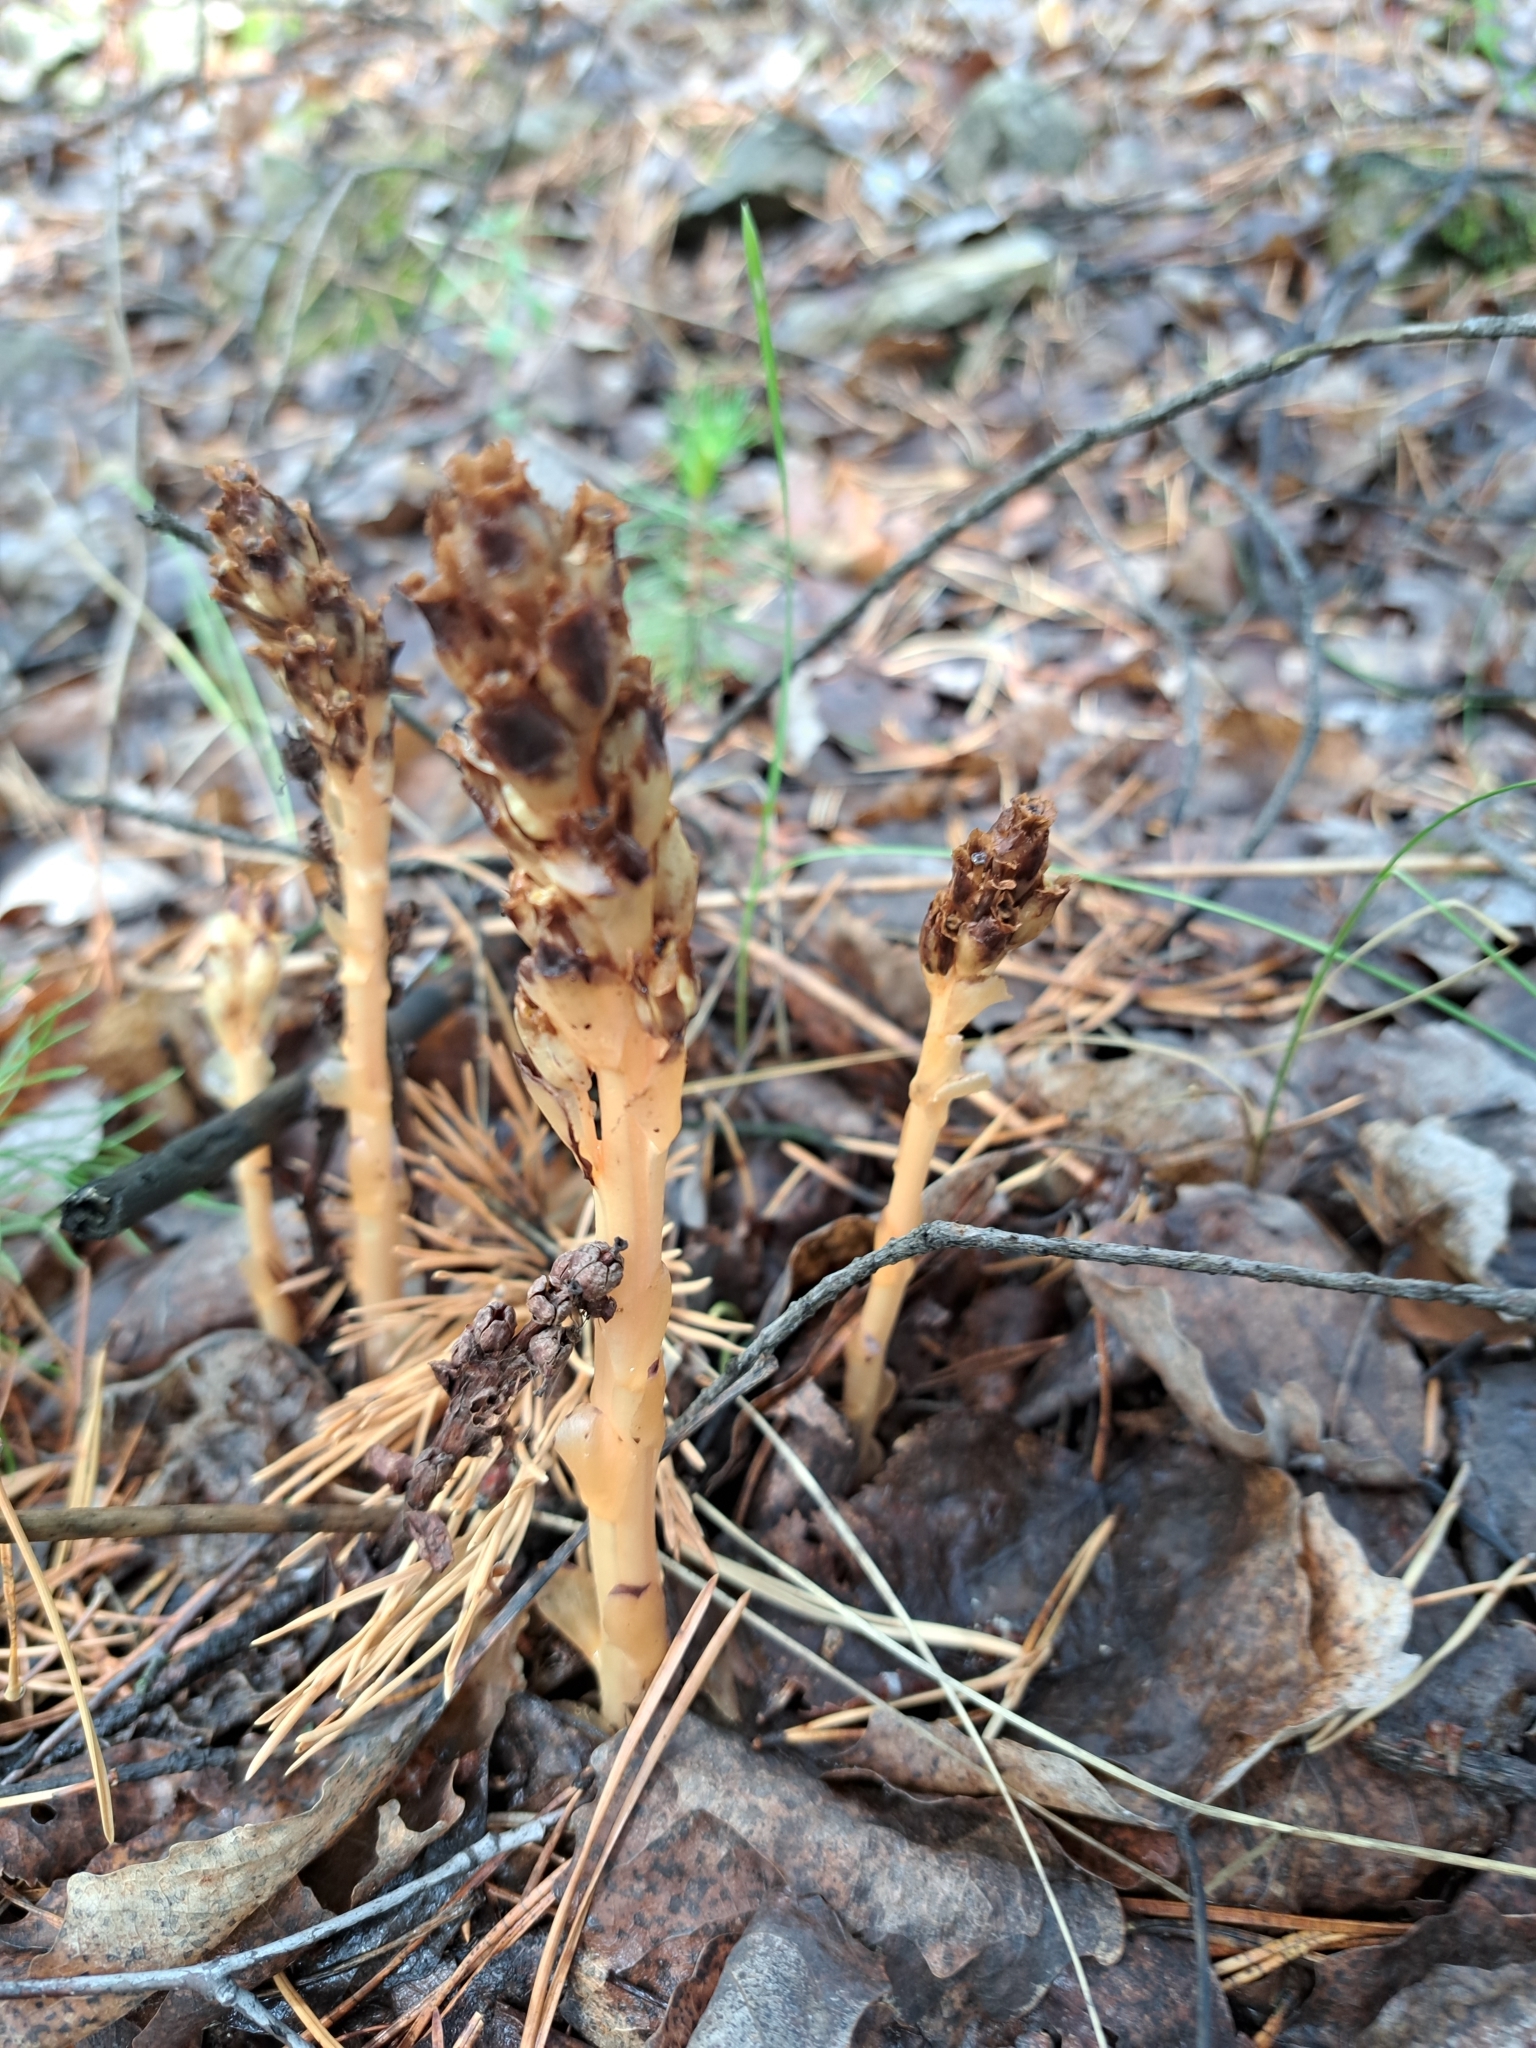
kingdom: Plantae
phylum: Tracheophyta
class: Magnoliopsida
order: Ericales
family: Ericaceae
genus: Hypopitys
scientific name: Hypopitys monotropa
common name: Yellow bird's-nest
